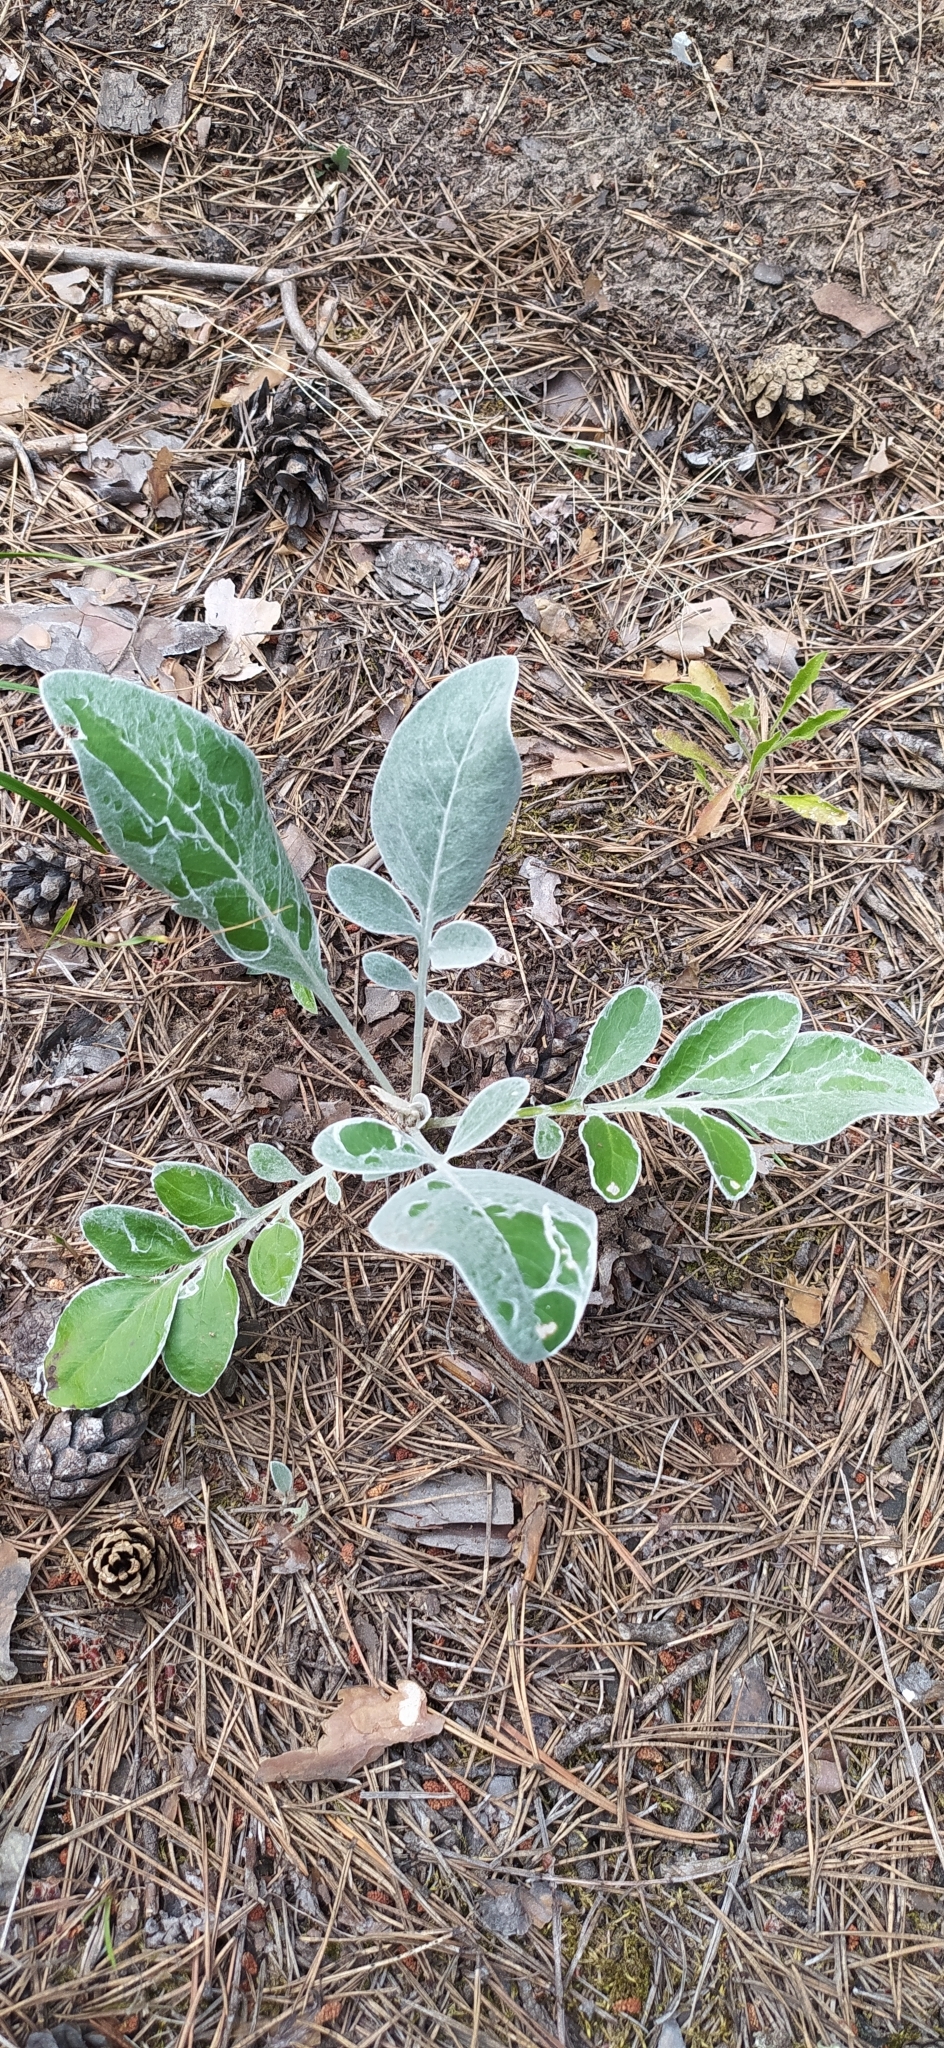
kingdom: Plantae
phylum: Tracheophyta
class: Magnoliopsida
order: Asterales
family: Asteraceae
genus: Psephellus
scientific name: Psephellus sumensis
